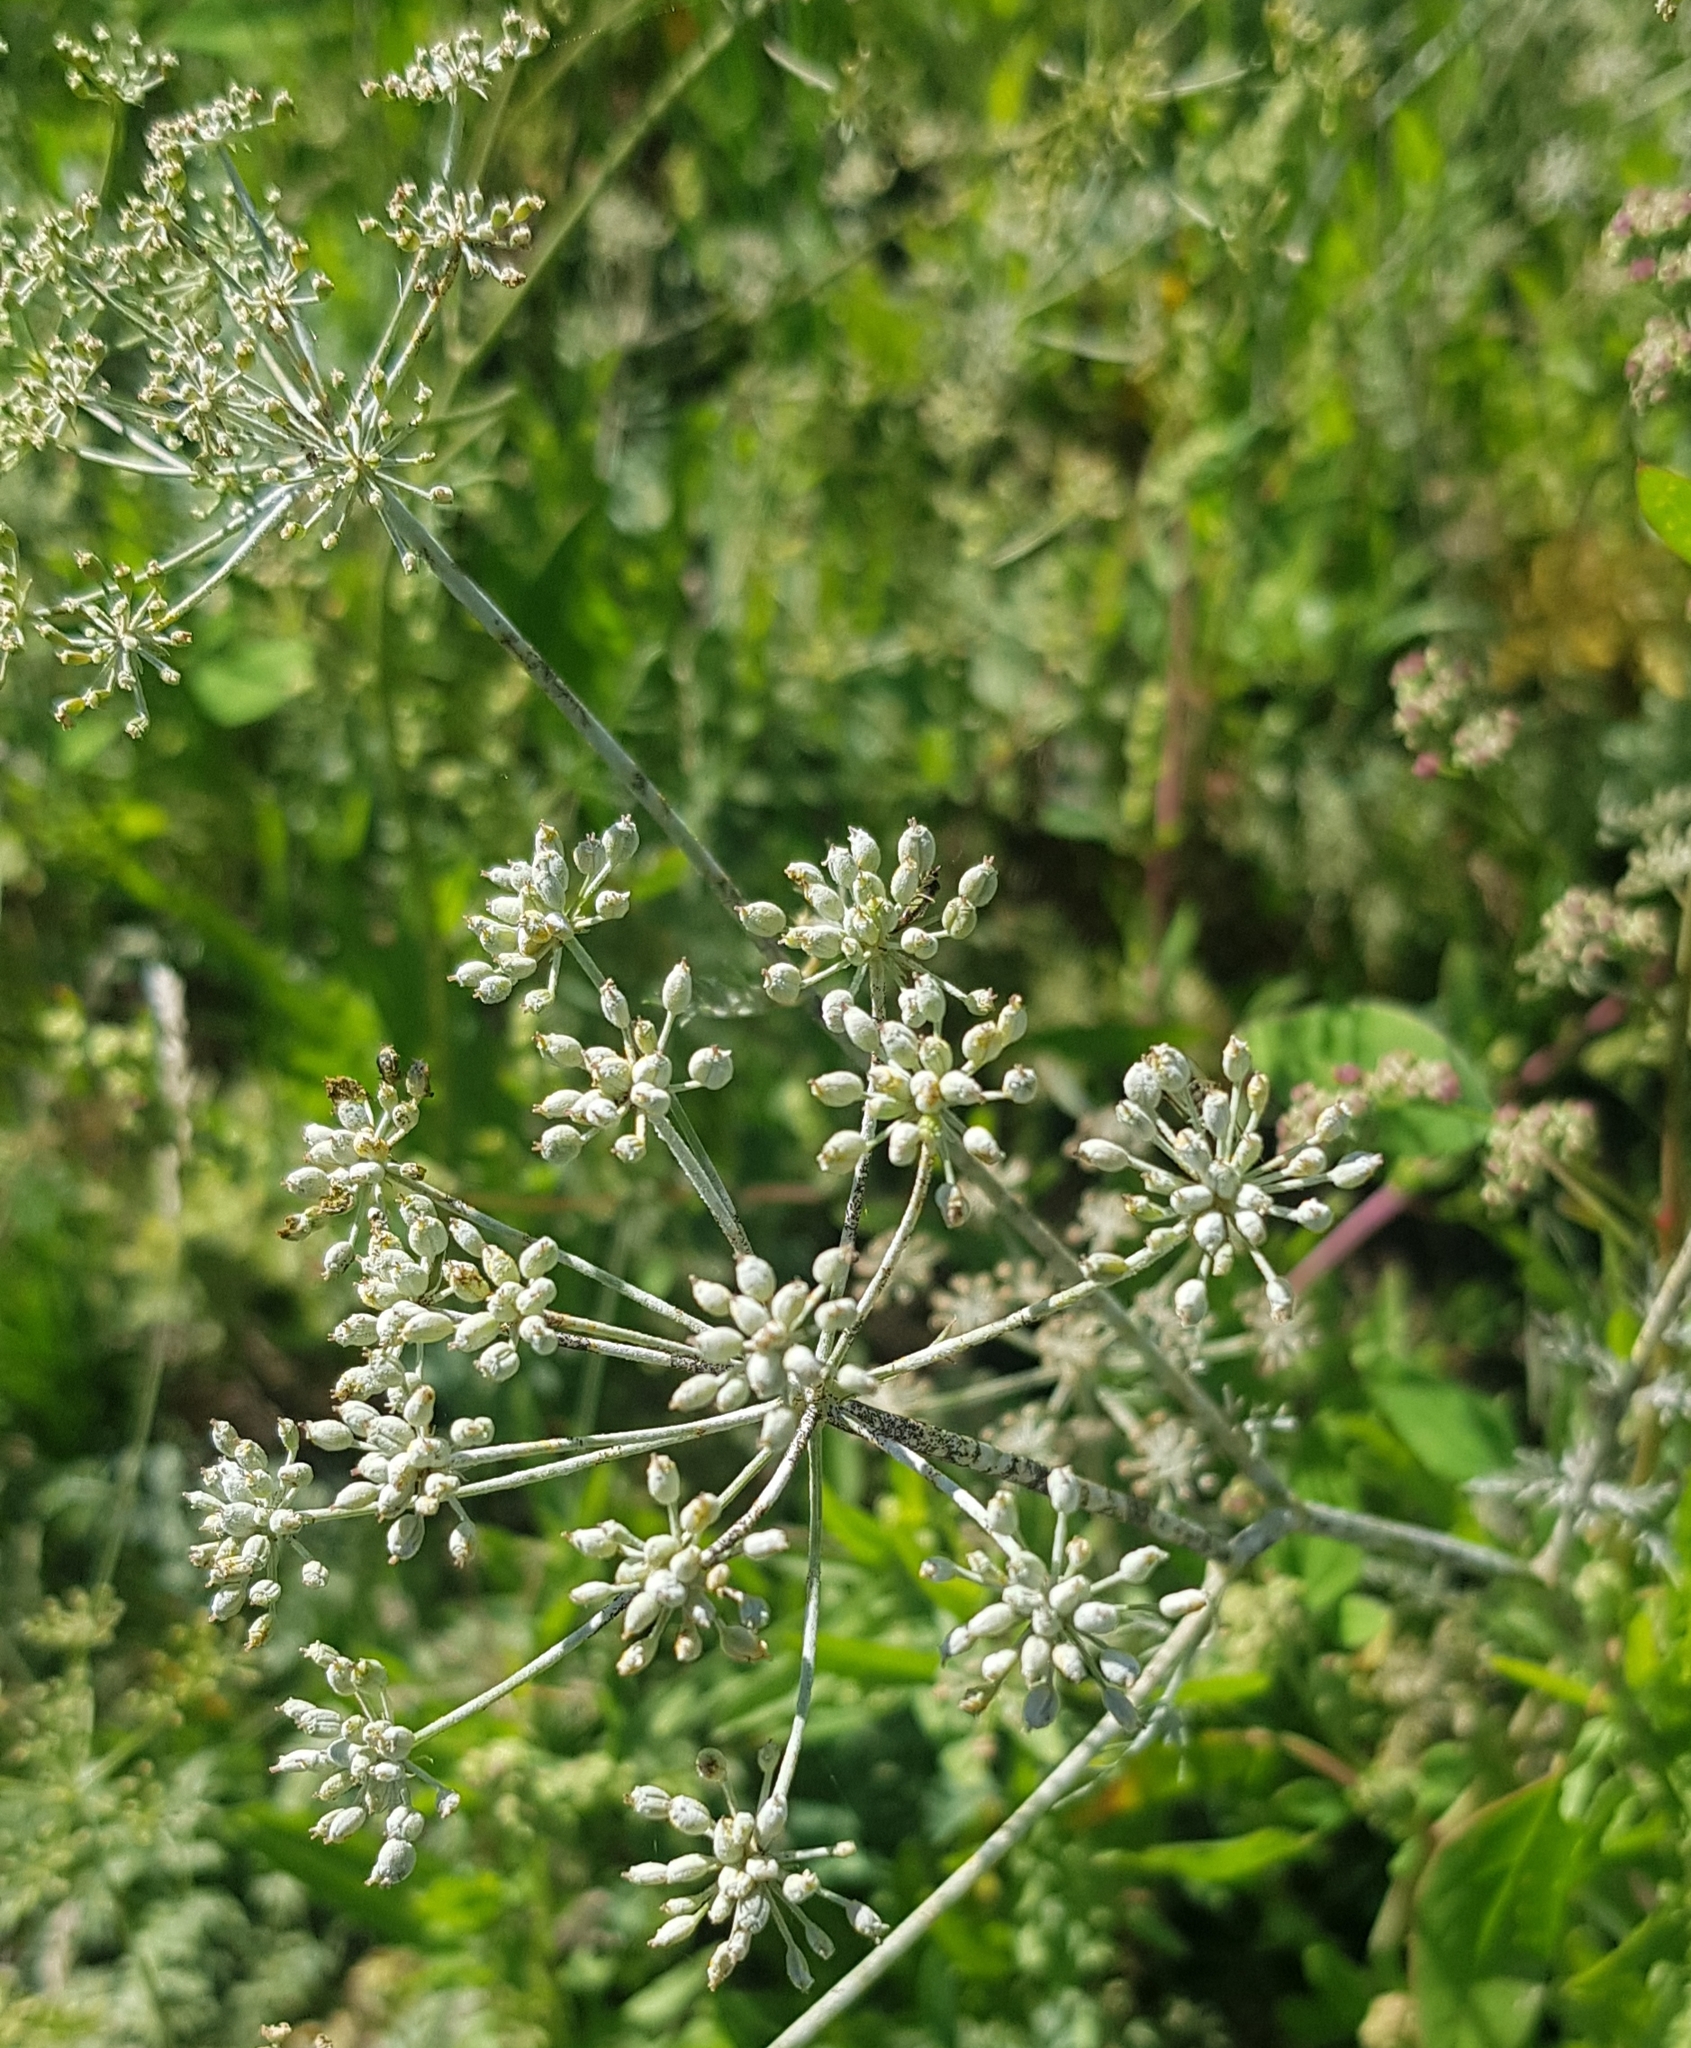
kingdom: Plantae
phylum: Tracheophyta
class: Magnoliopsida
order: Apiales
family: Apiaceae
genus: Carum
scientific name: Carum buriaticum
